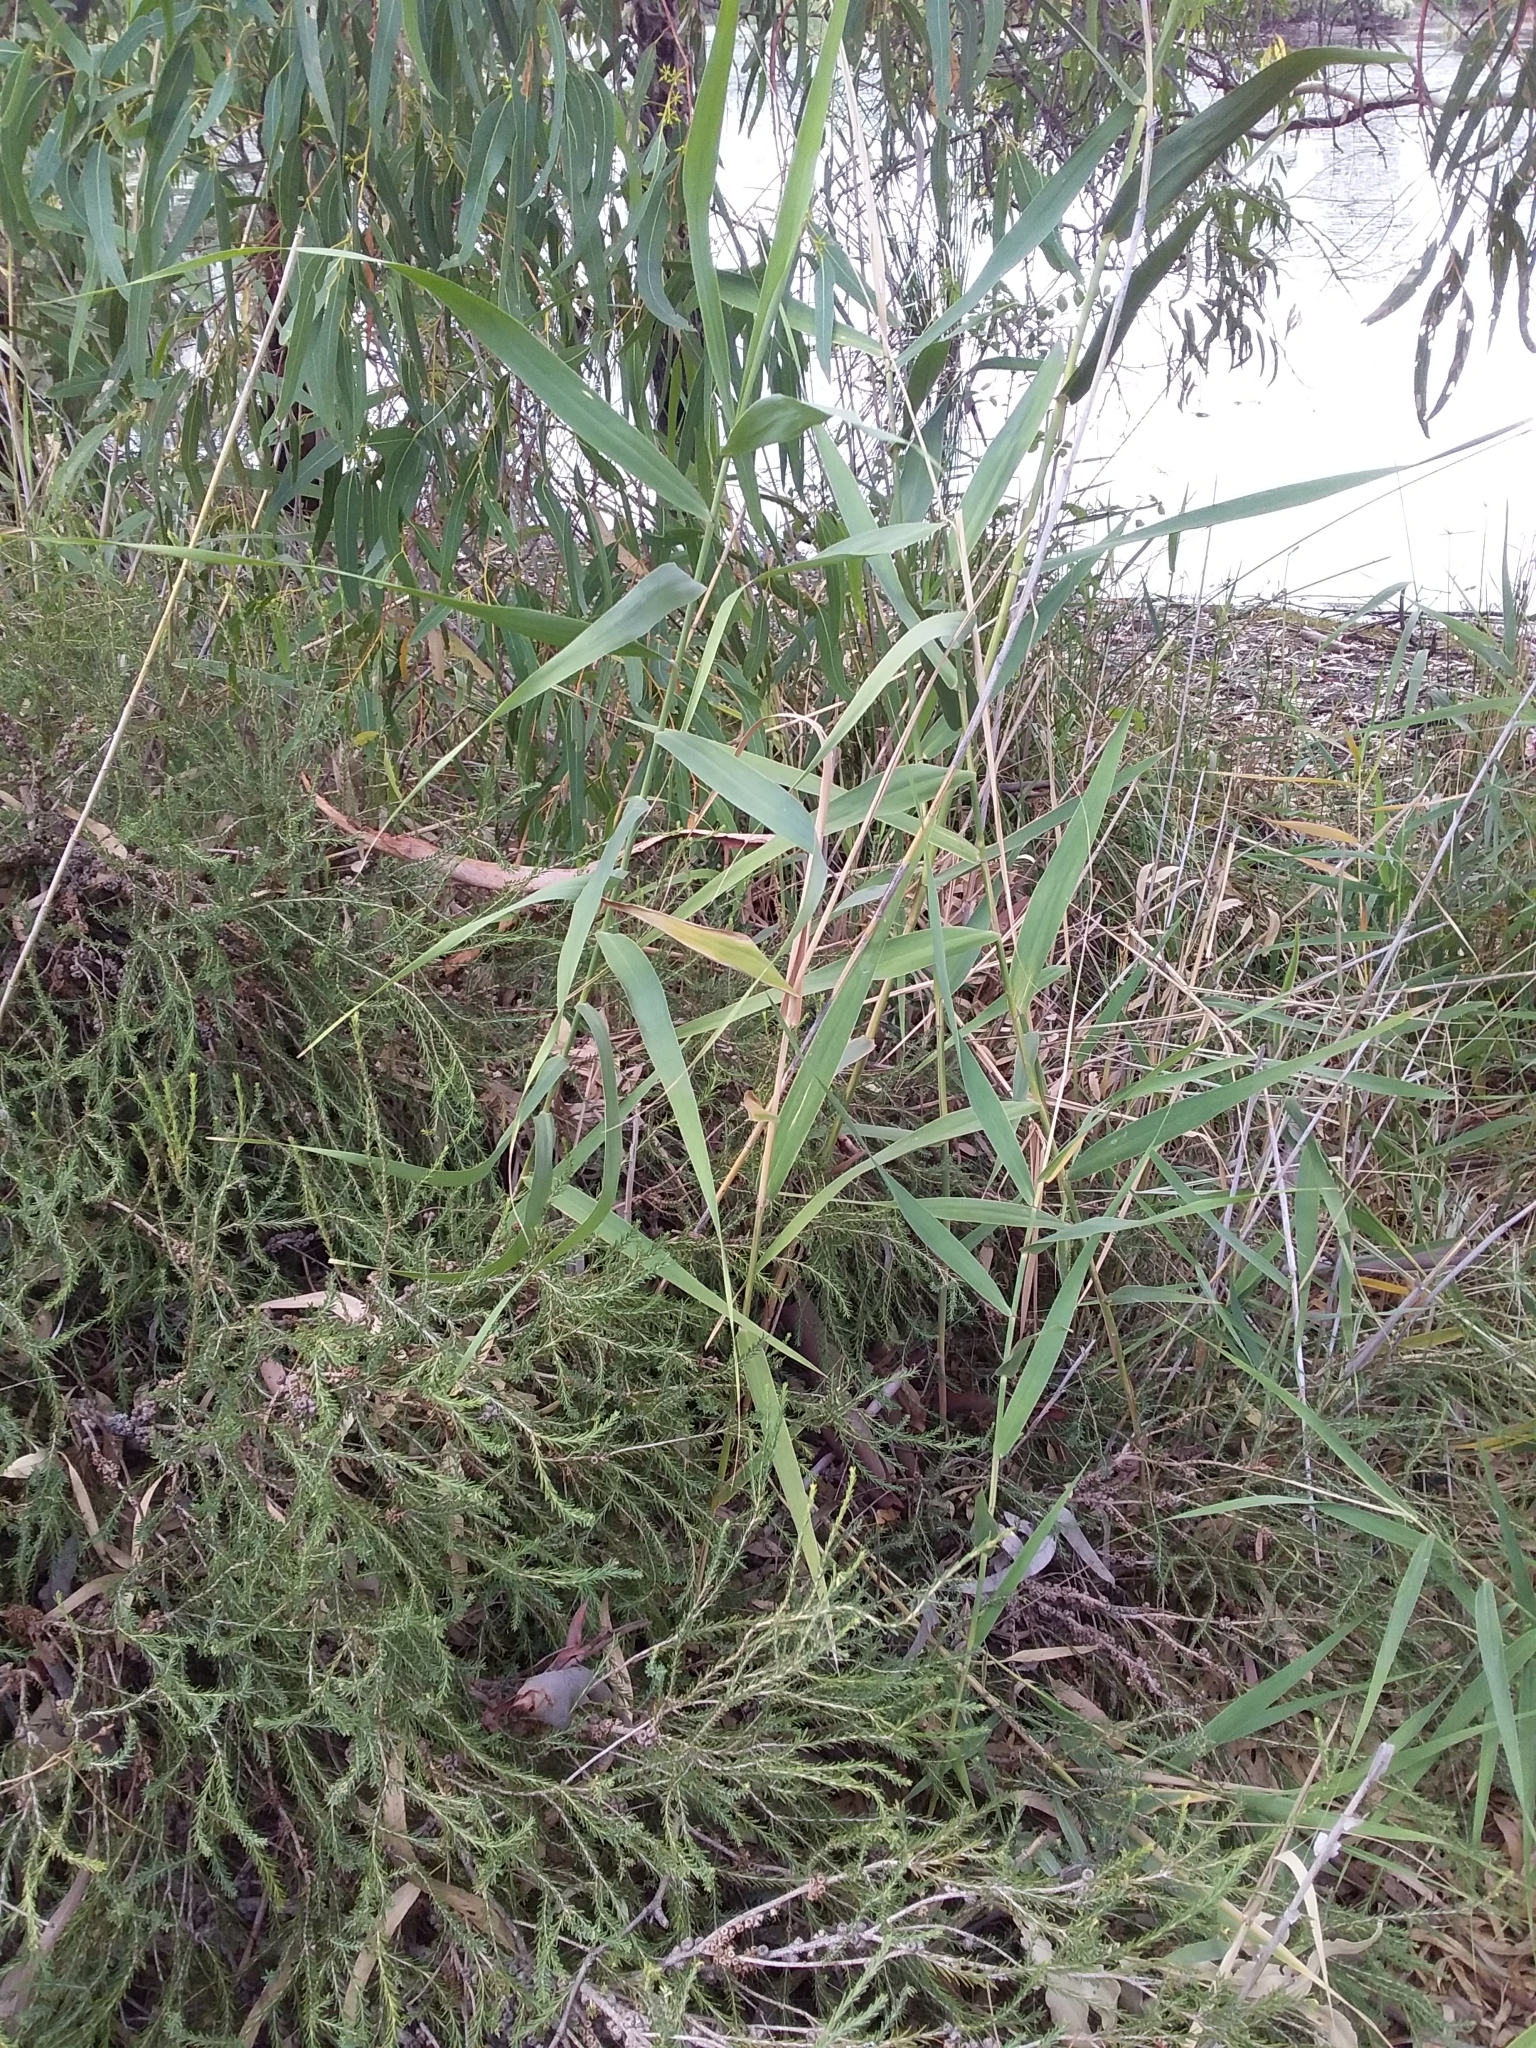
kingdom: Plantae
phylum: Tracheophyta
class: Liliopsida
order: Poales
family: Poaceae
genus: Phragmites
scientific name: Phragmites australis
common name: Common reed
